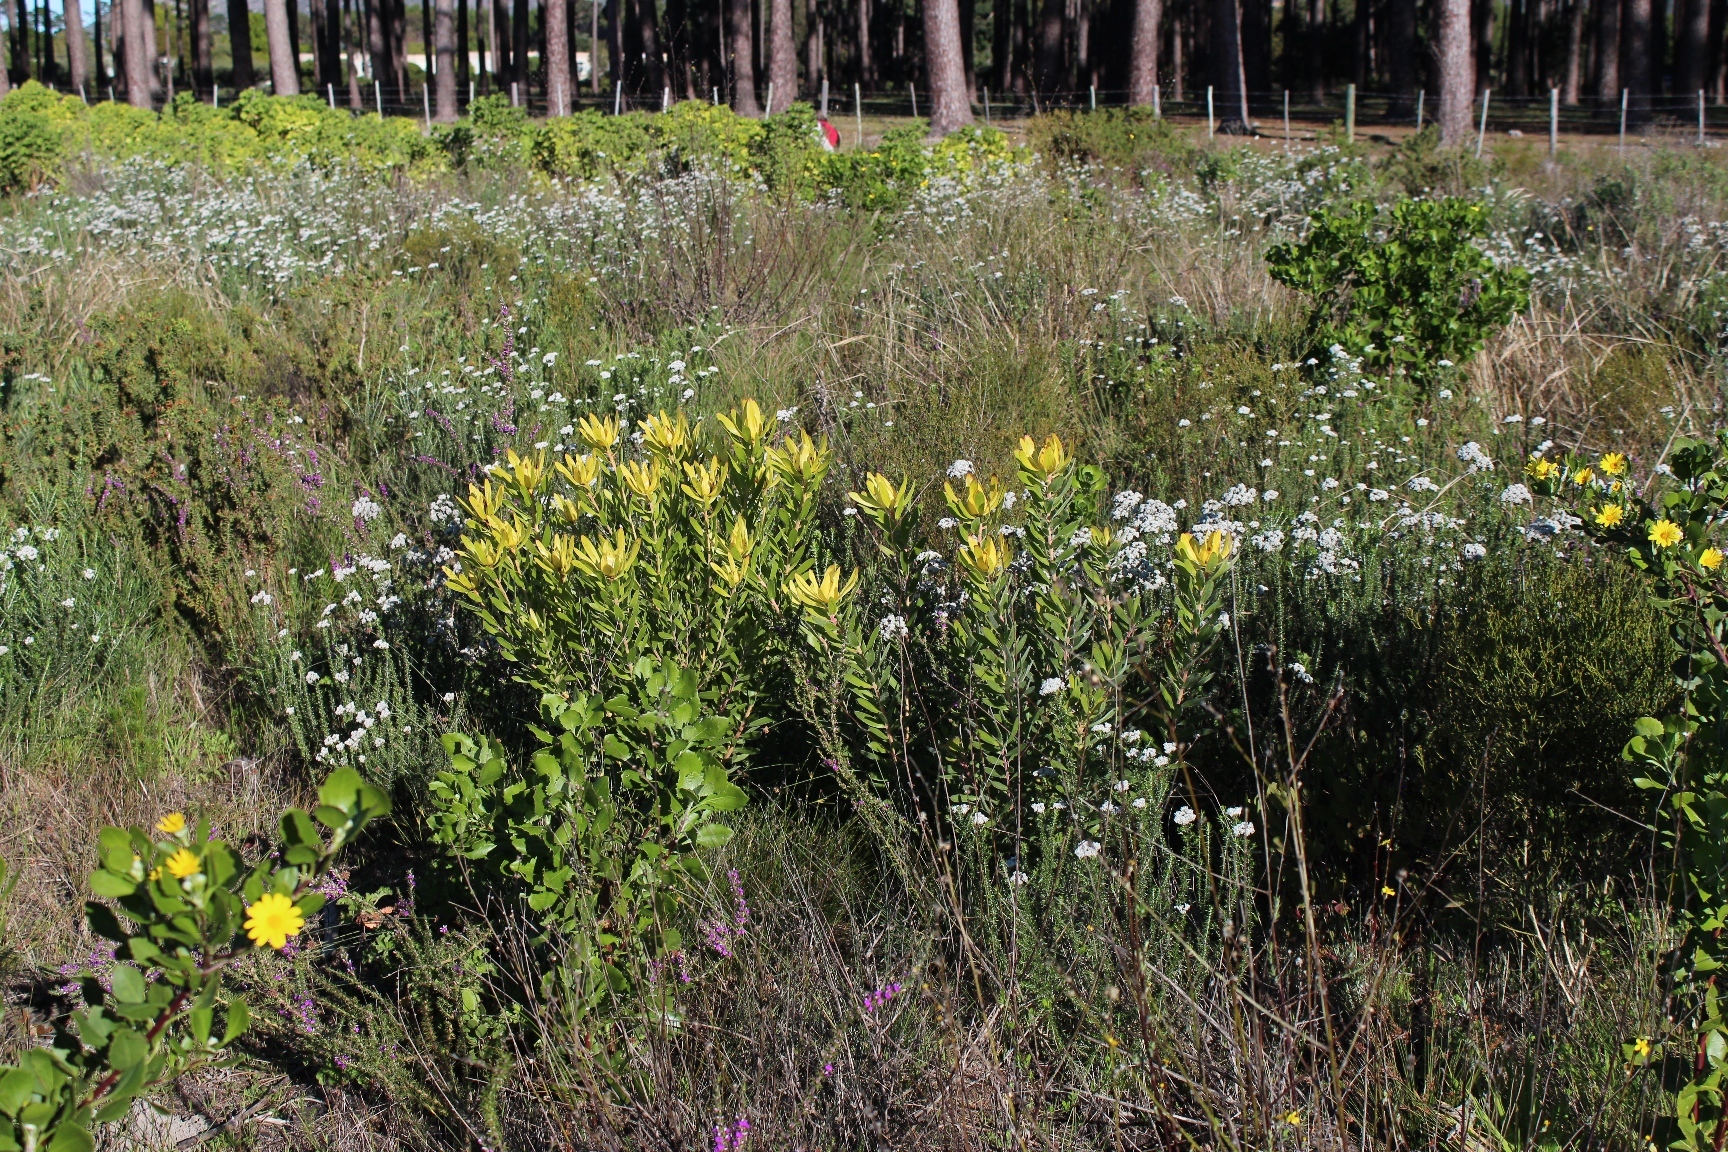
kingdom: Plantae
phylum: Tracheophyta
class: Magnoliopsida
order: Proteales
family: Proteaceae
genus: Leucadendron
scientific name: Leucadendron laureolum
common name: Golden sunshinebush
